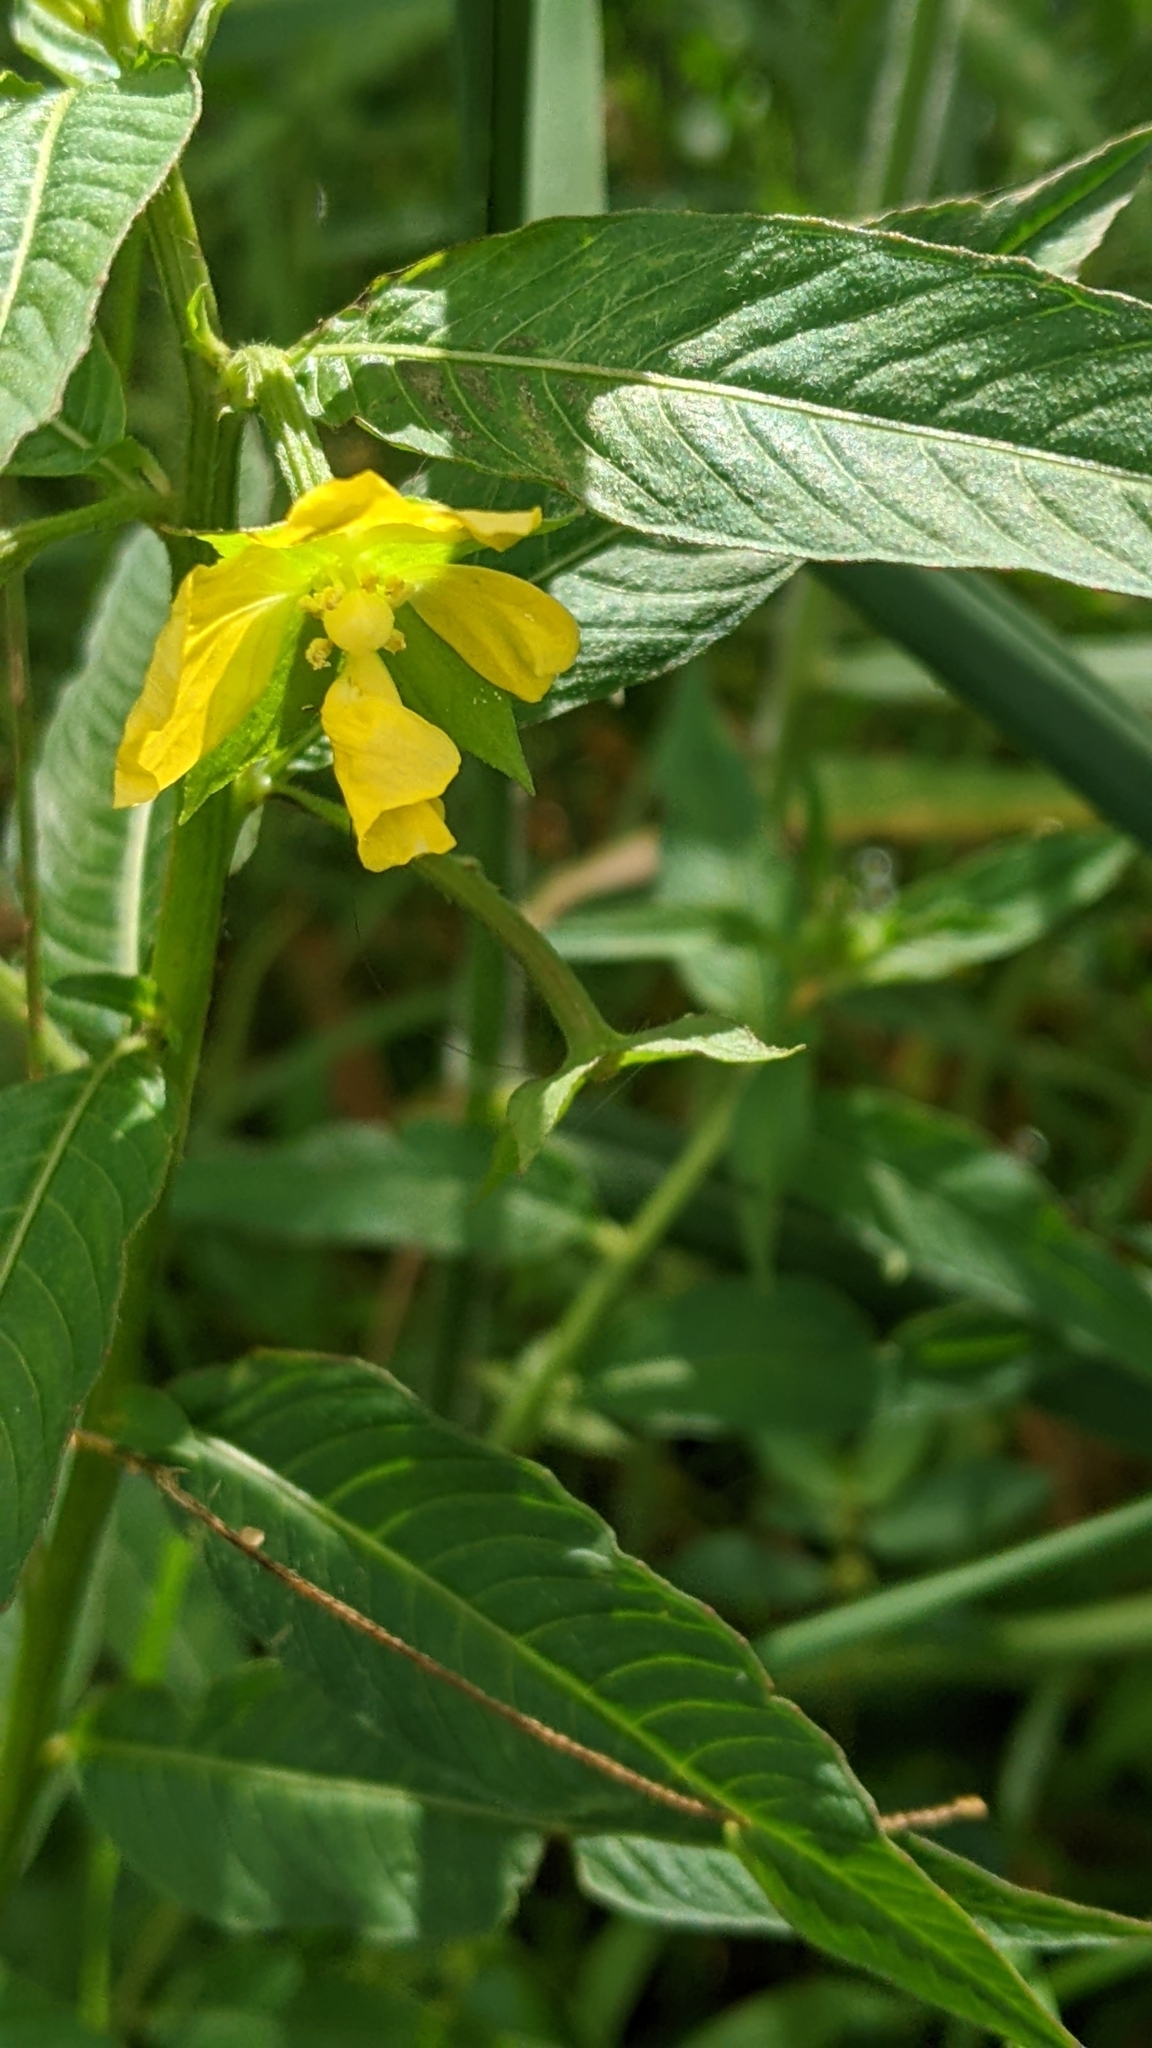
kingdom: Plantae
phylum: Tracheophyta
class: Magnoliopsida
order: Myrtales
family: Onagraceae
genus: Ludwigia
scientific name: Ludwigia octovalvis
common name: Water-primrose
